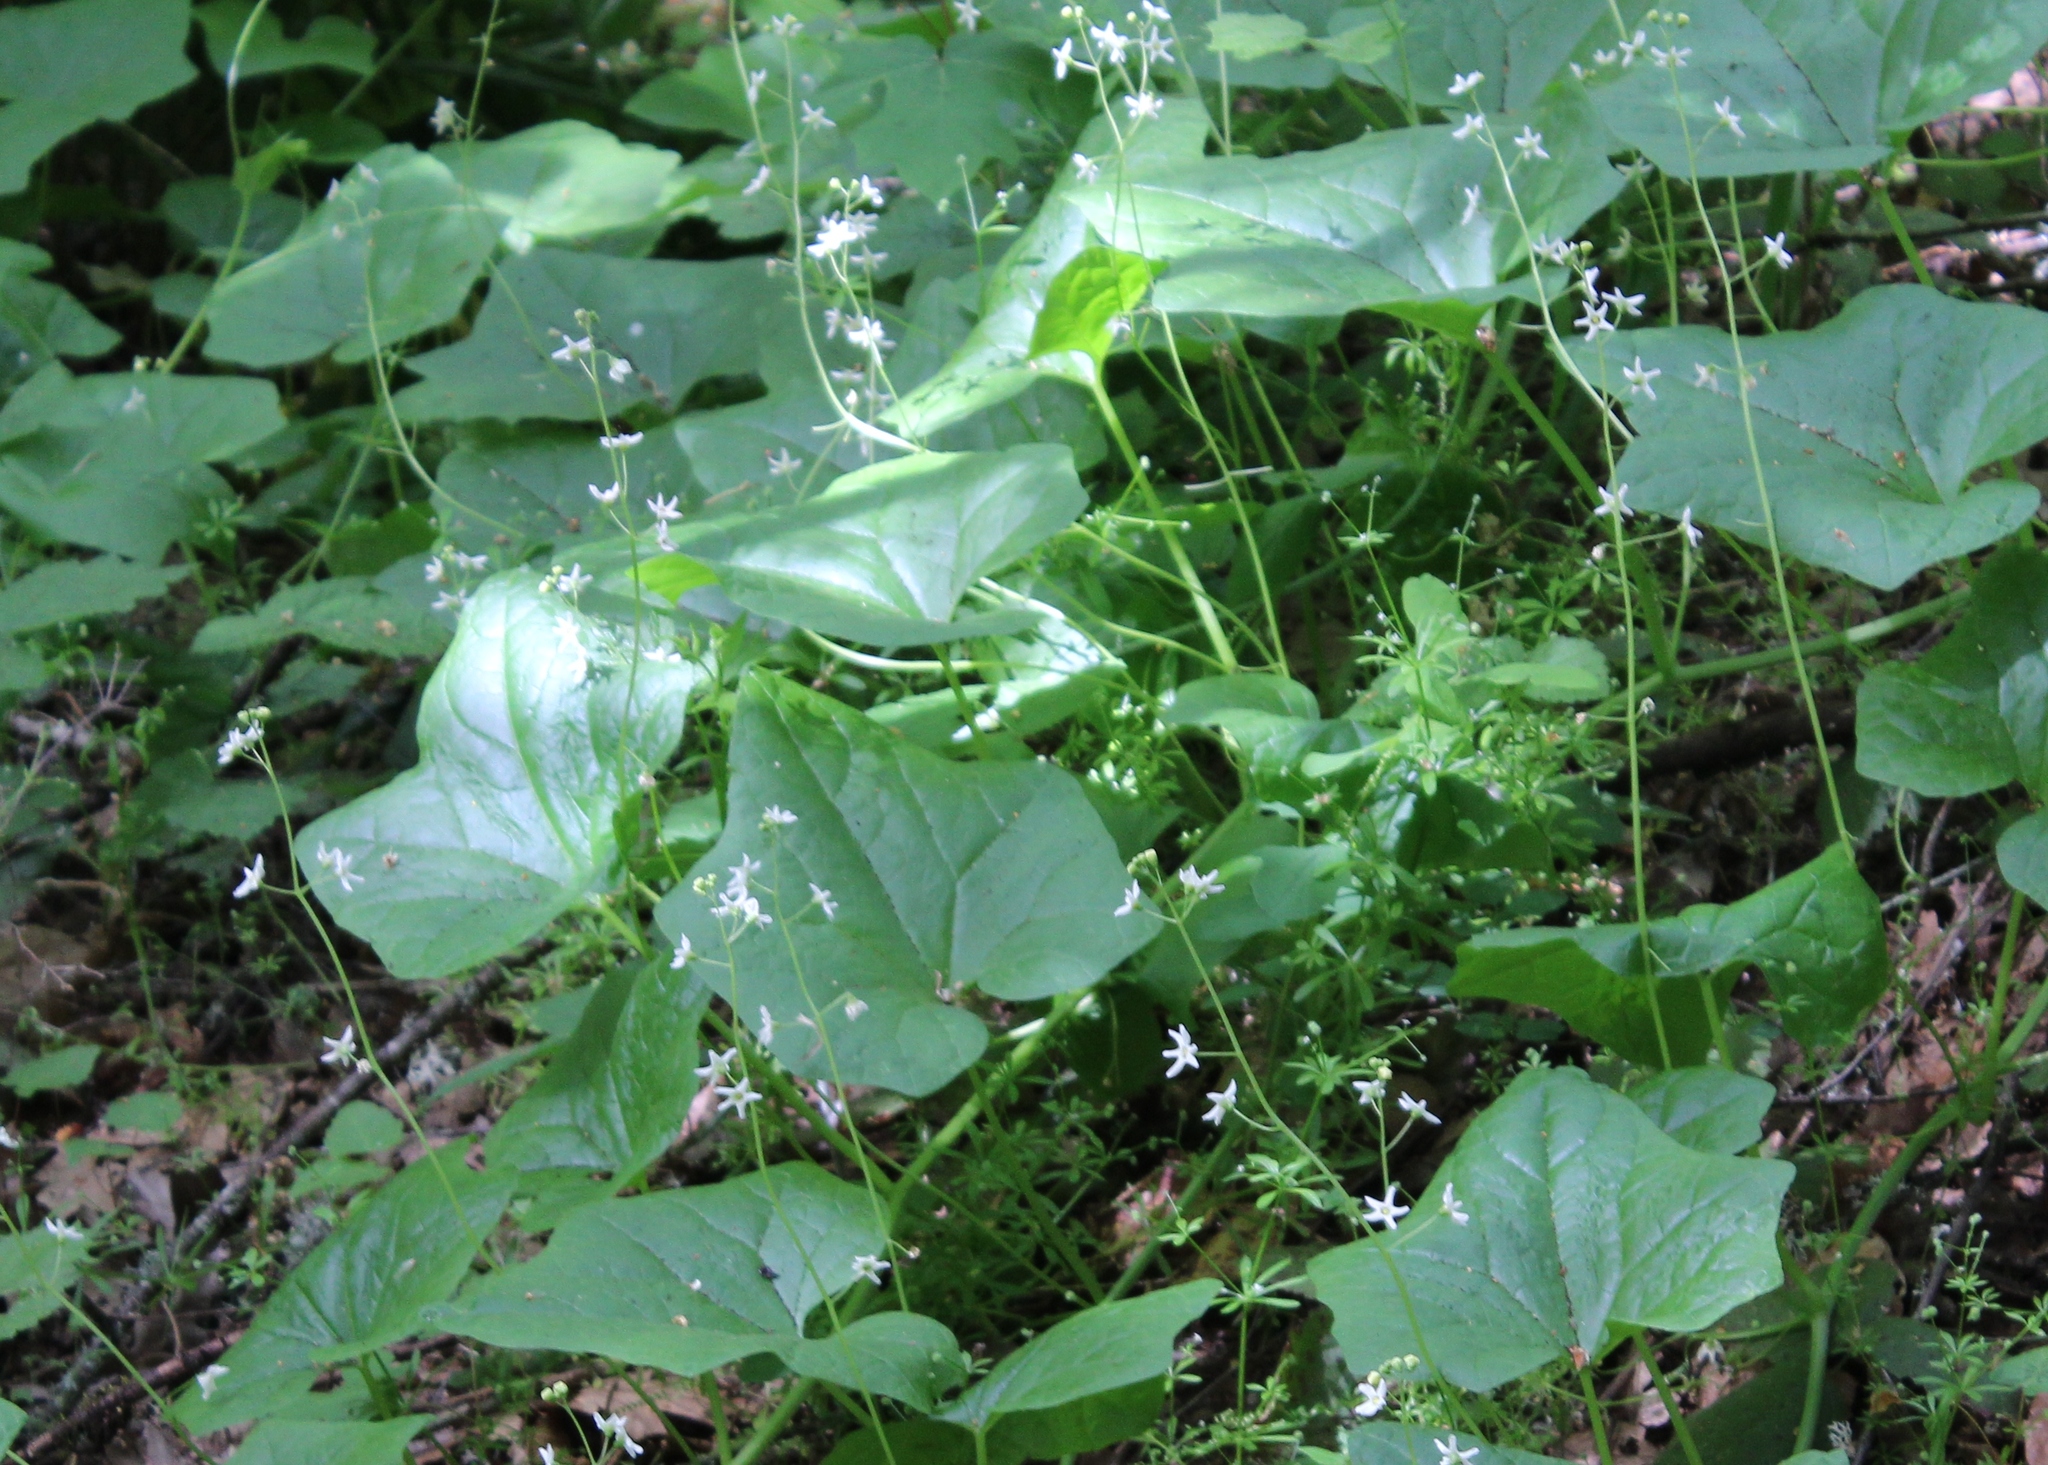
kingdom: Plantae
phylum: Tracheophyta
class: Magnoliopsida
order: Cucurbitales
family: Cucurbitaceae
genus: Marah
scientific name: Marah oregana
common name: Coastal manroot
